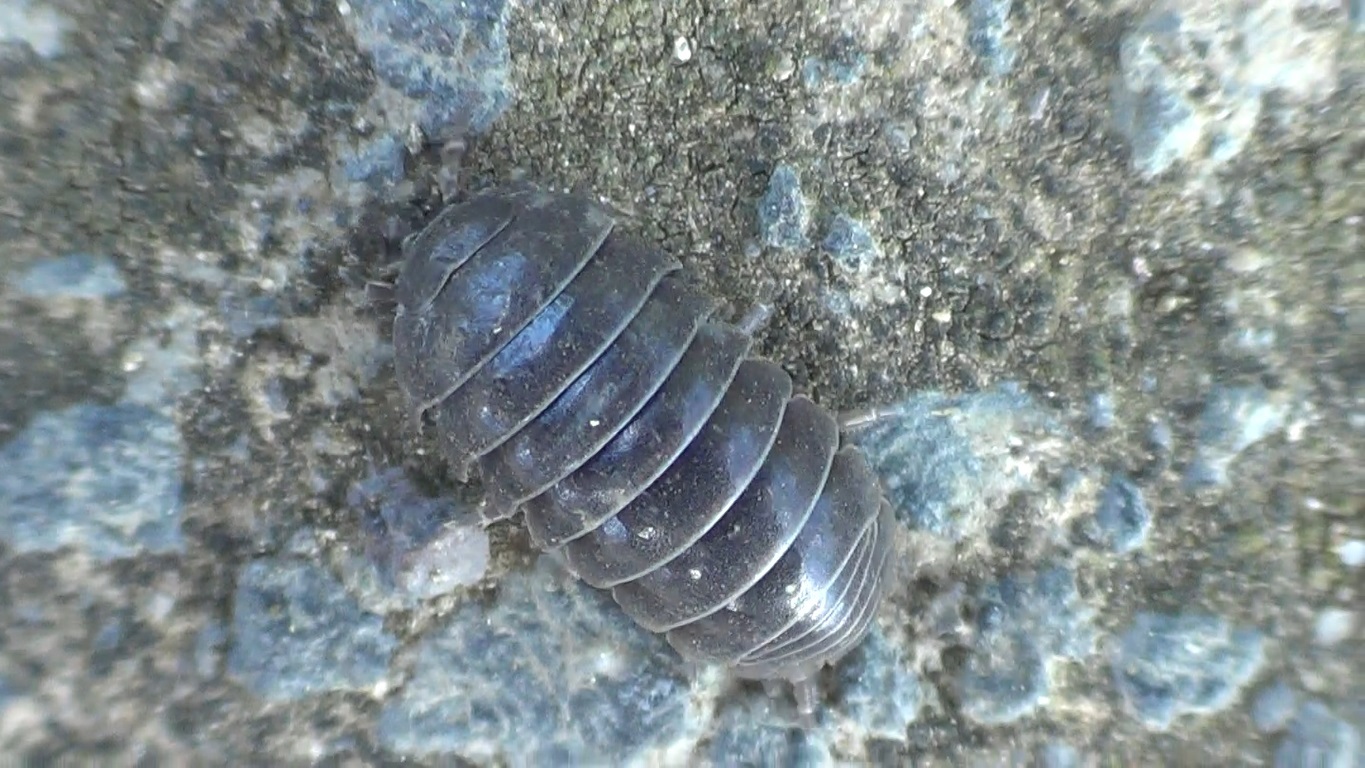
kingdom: Animalia
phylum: Arthropoda
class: Malacostraca
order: Isopoda
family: Armadillidiidae
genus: Armadillidium
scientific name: Armadillidium vulgare
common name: Common pill woodlouse
